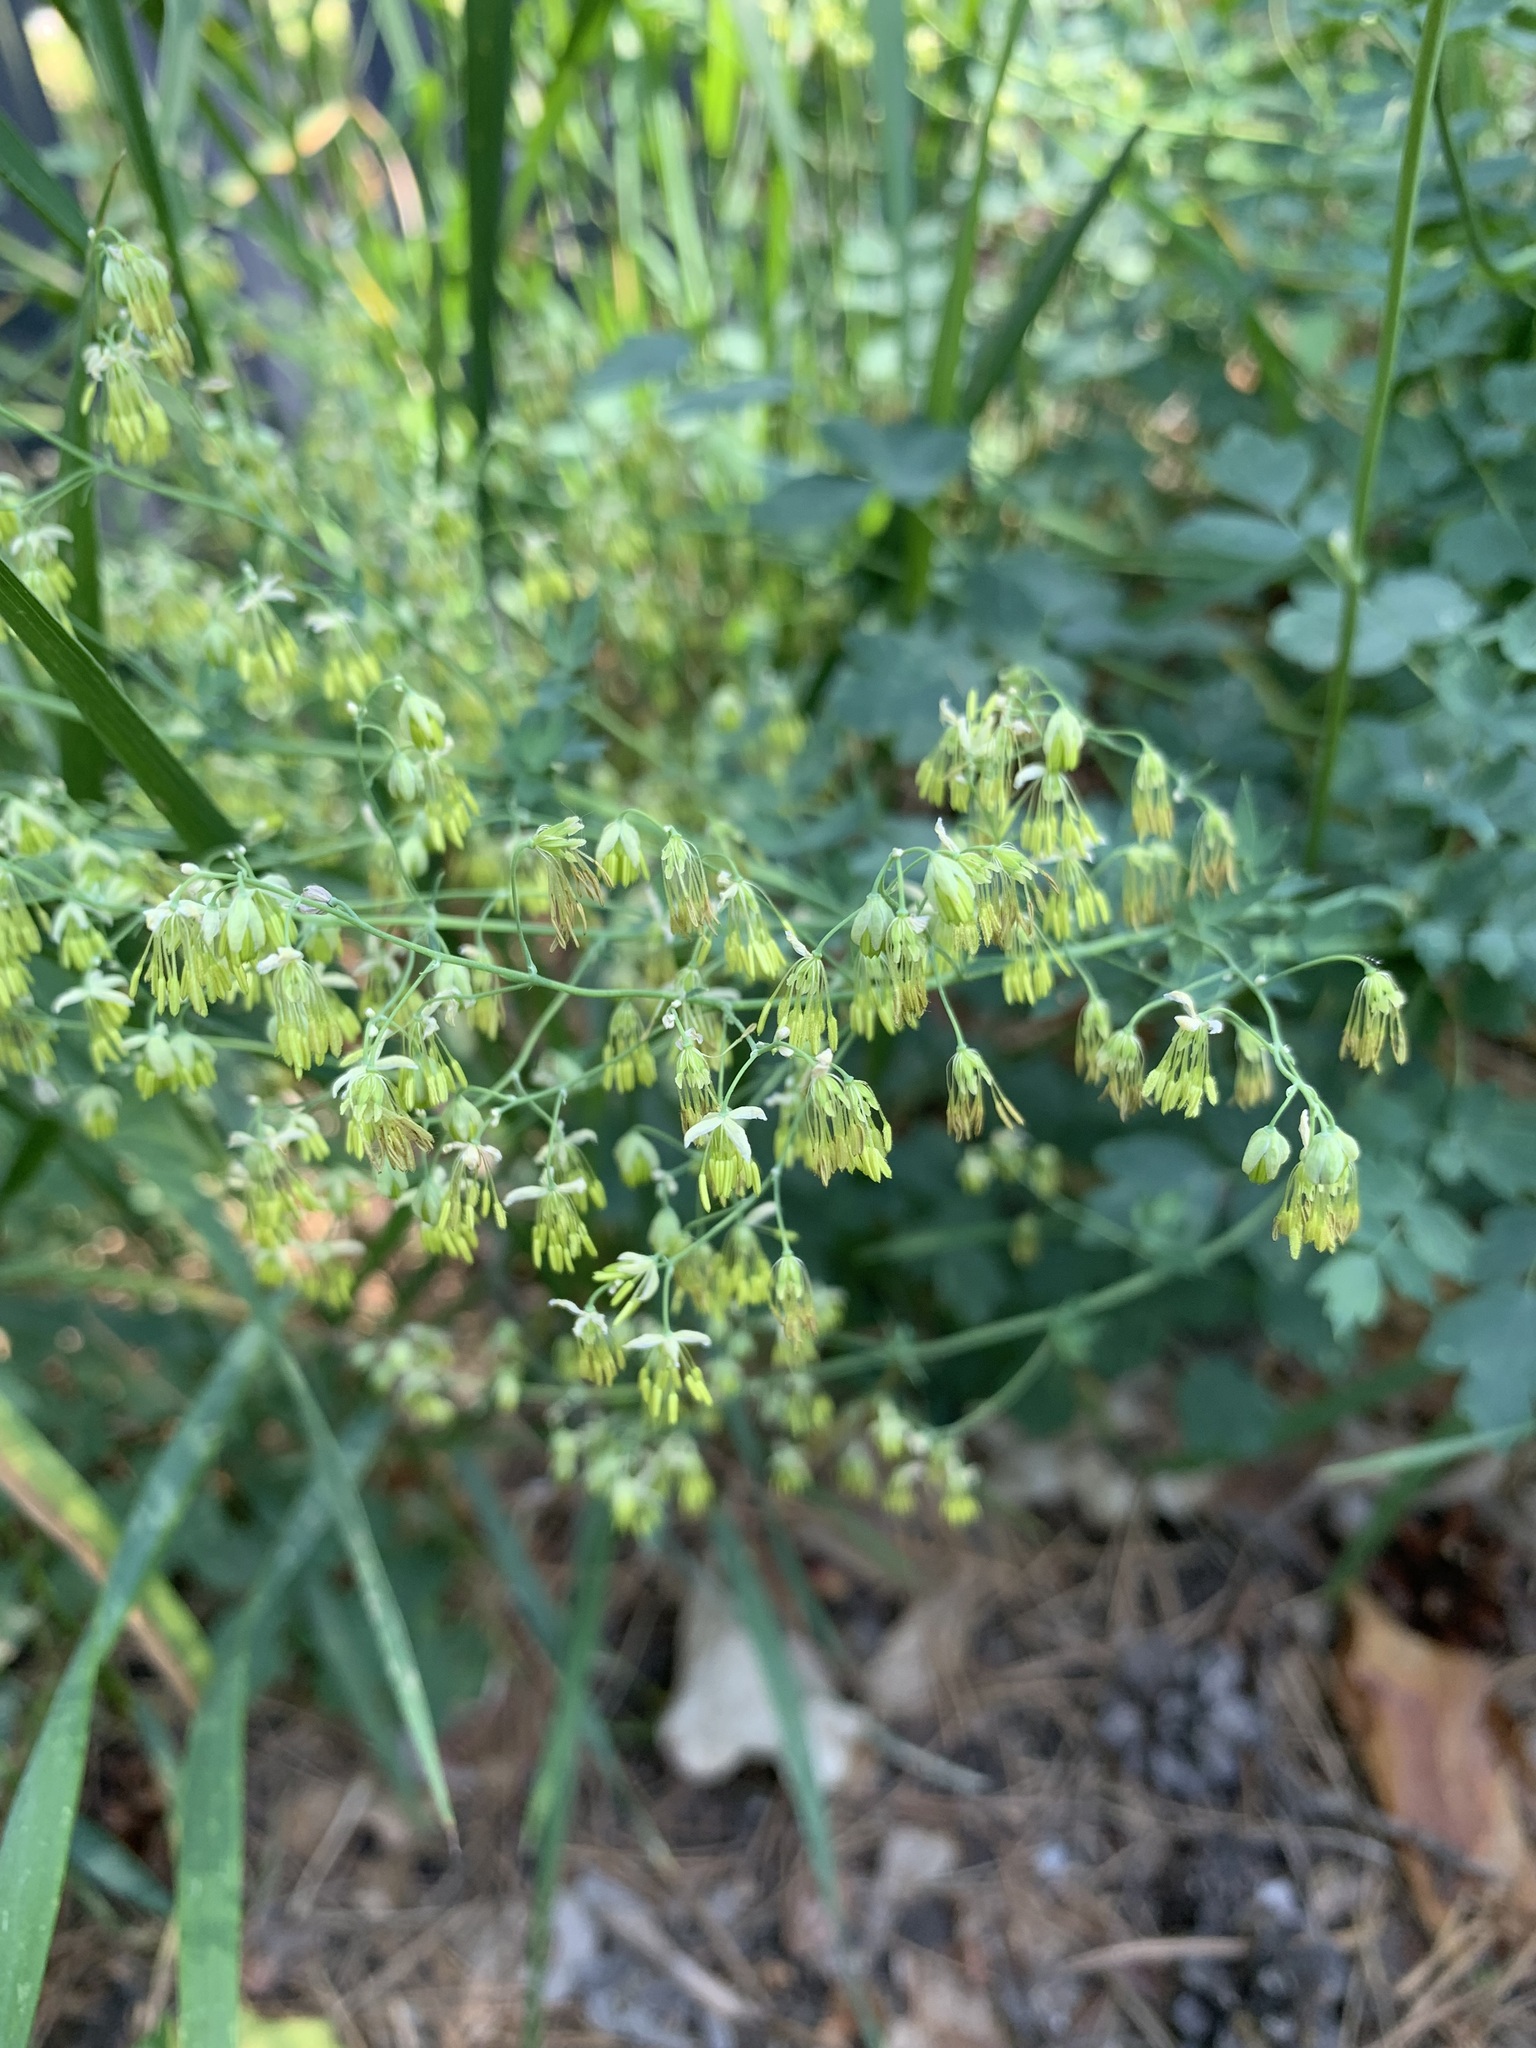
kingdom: Plantae
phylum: Tracheophyta
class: Magnoliopsida
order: Ranunculales
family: Ranunculaceae
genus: Thalictrum
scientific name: Thalictrum minus
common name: Lesser meadow-rue
